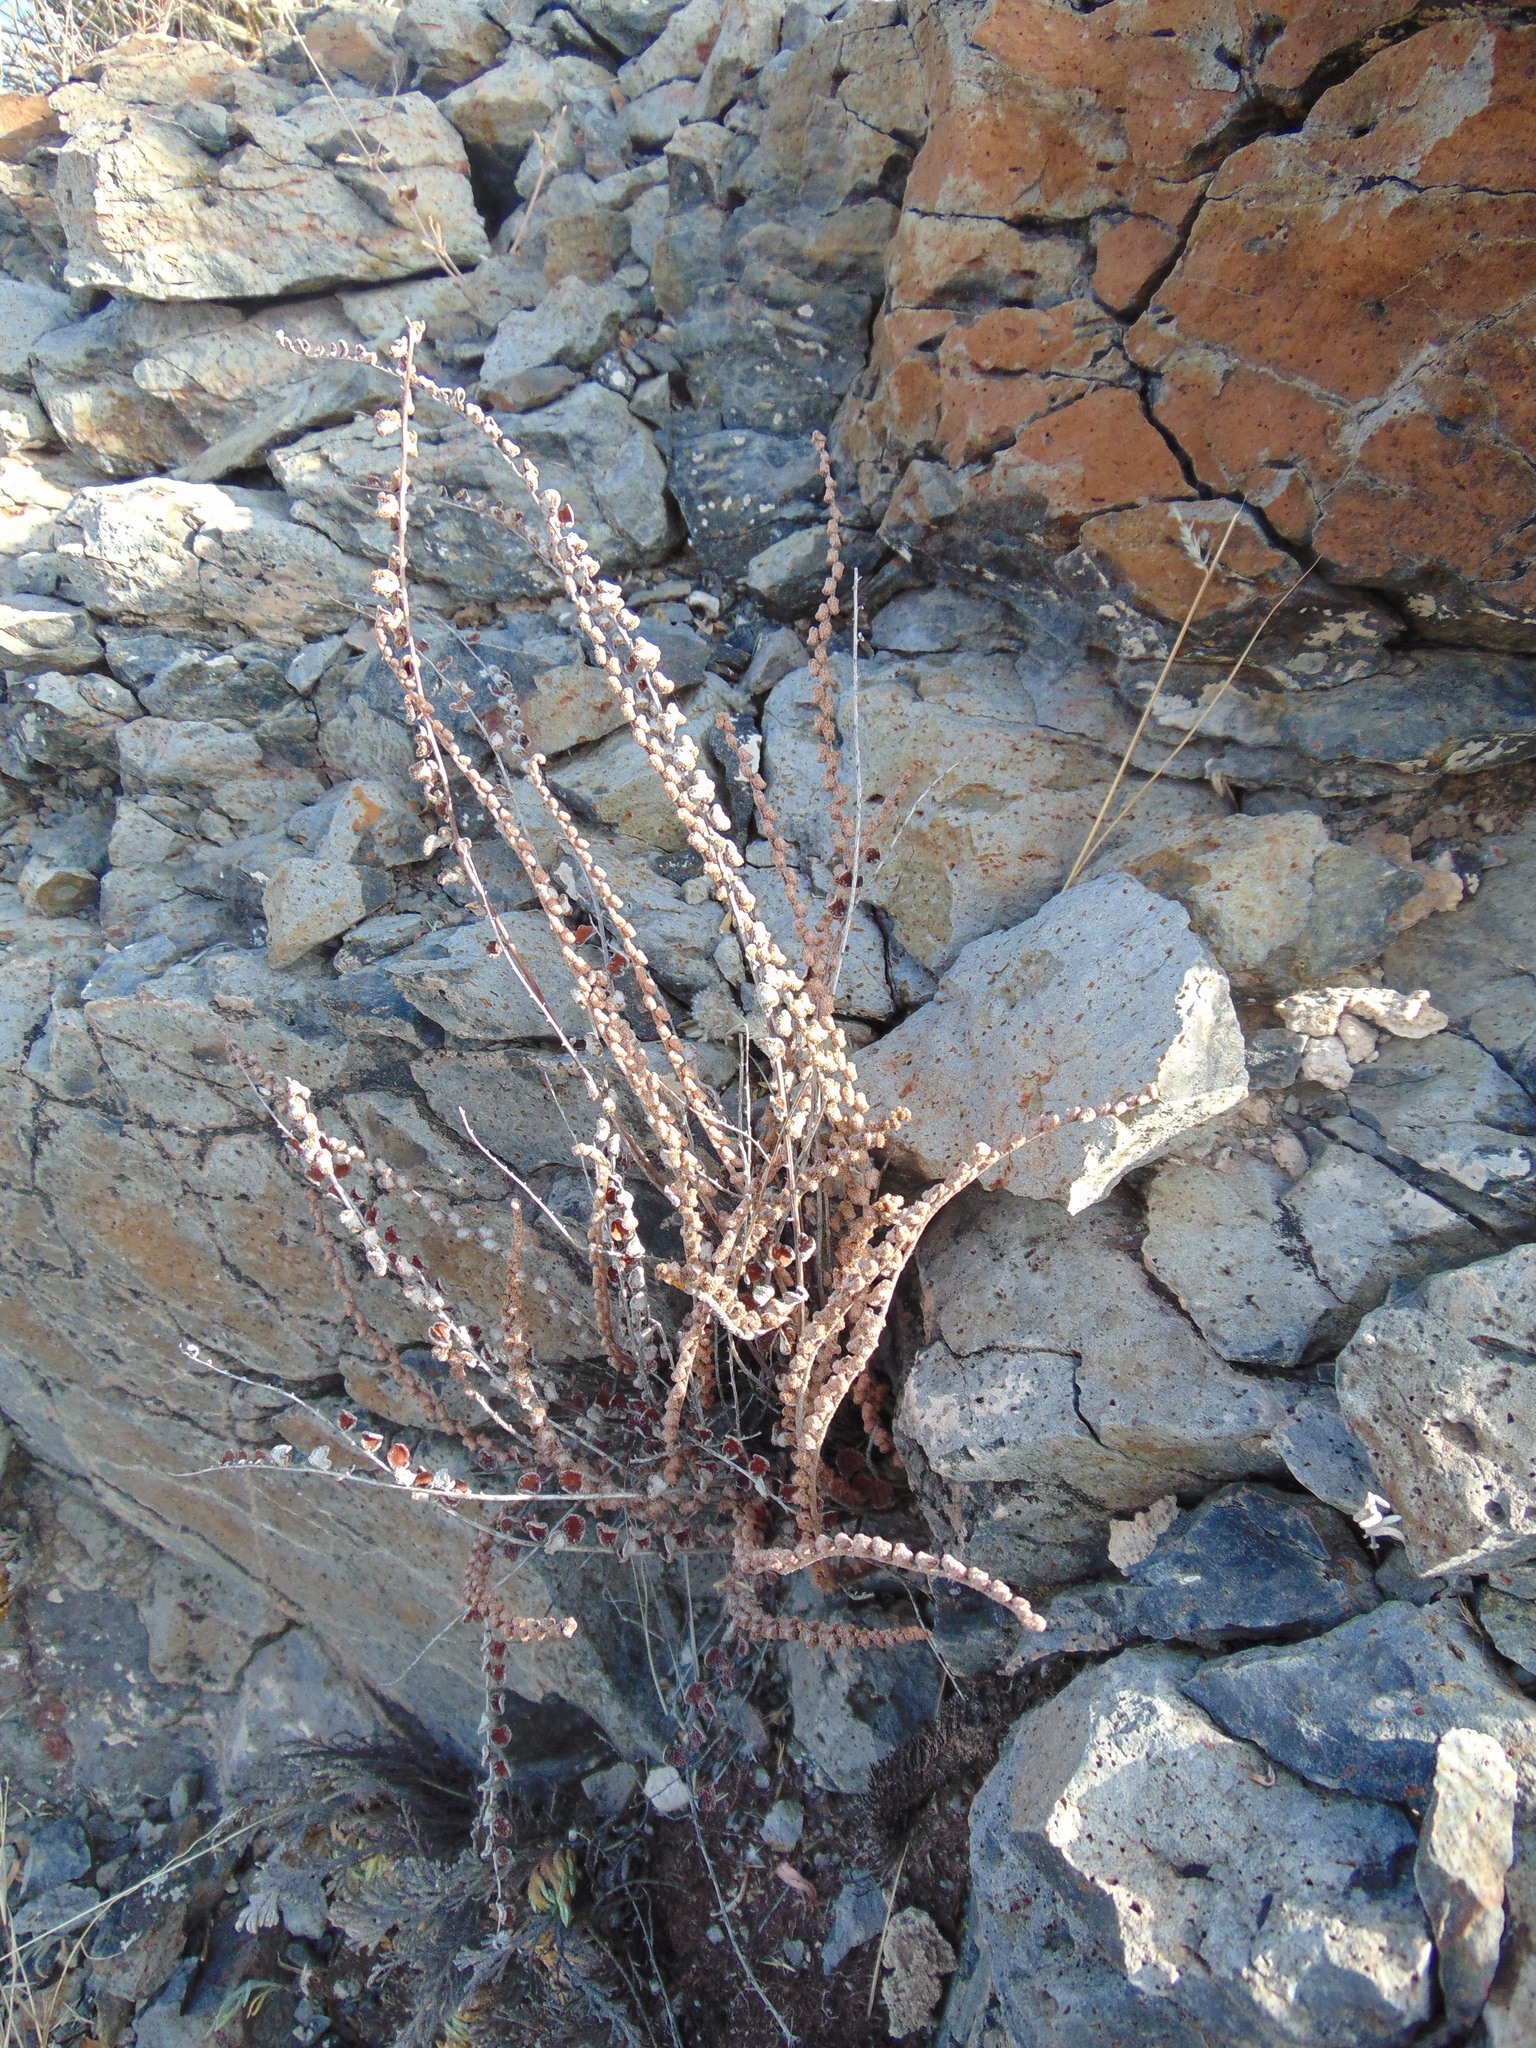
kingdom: Plantae
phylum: Tracheophyta
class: Polypodiopsida
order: Polypodiales
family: Pteridaceae
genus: Astrolepis
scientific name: Astrolepis cochisensis
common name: Scaly cloak fern
